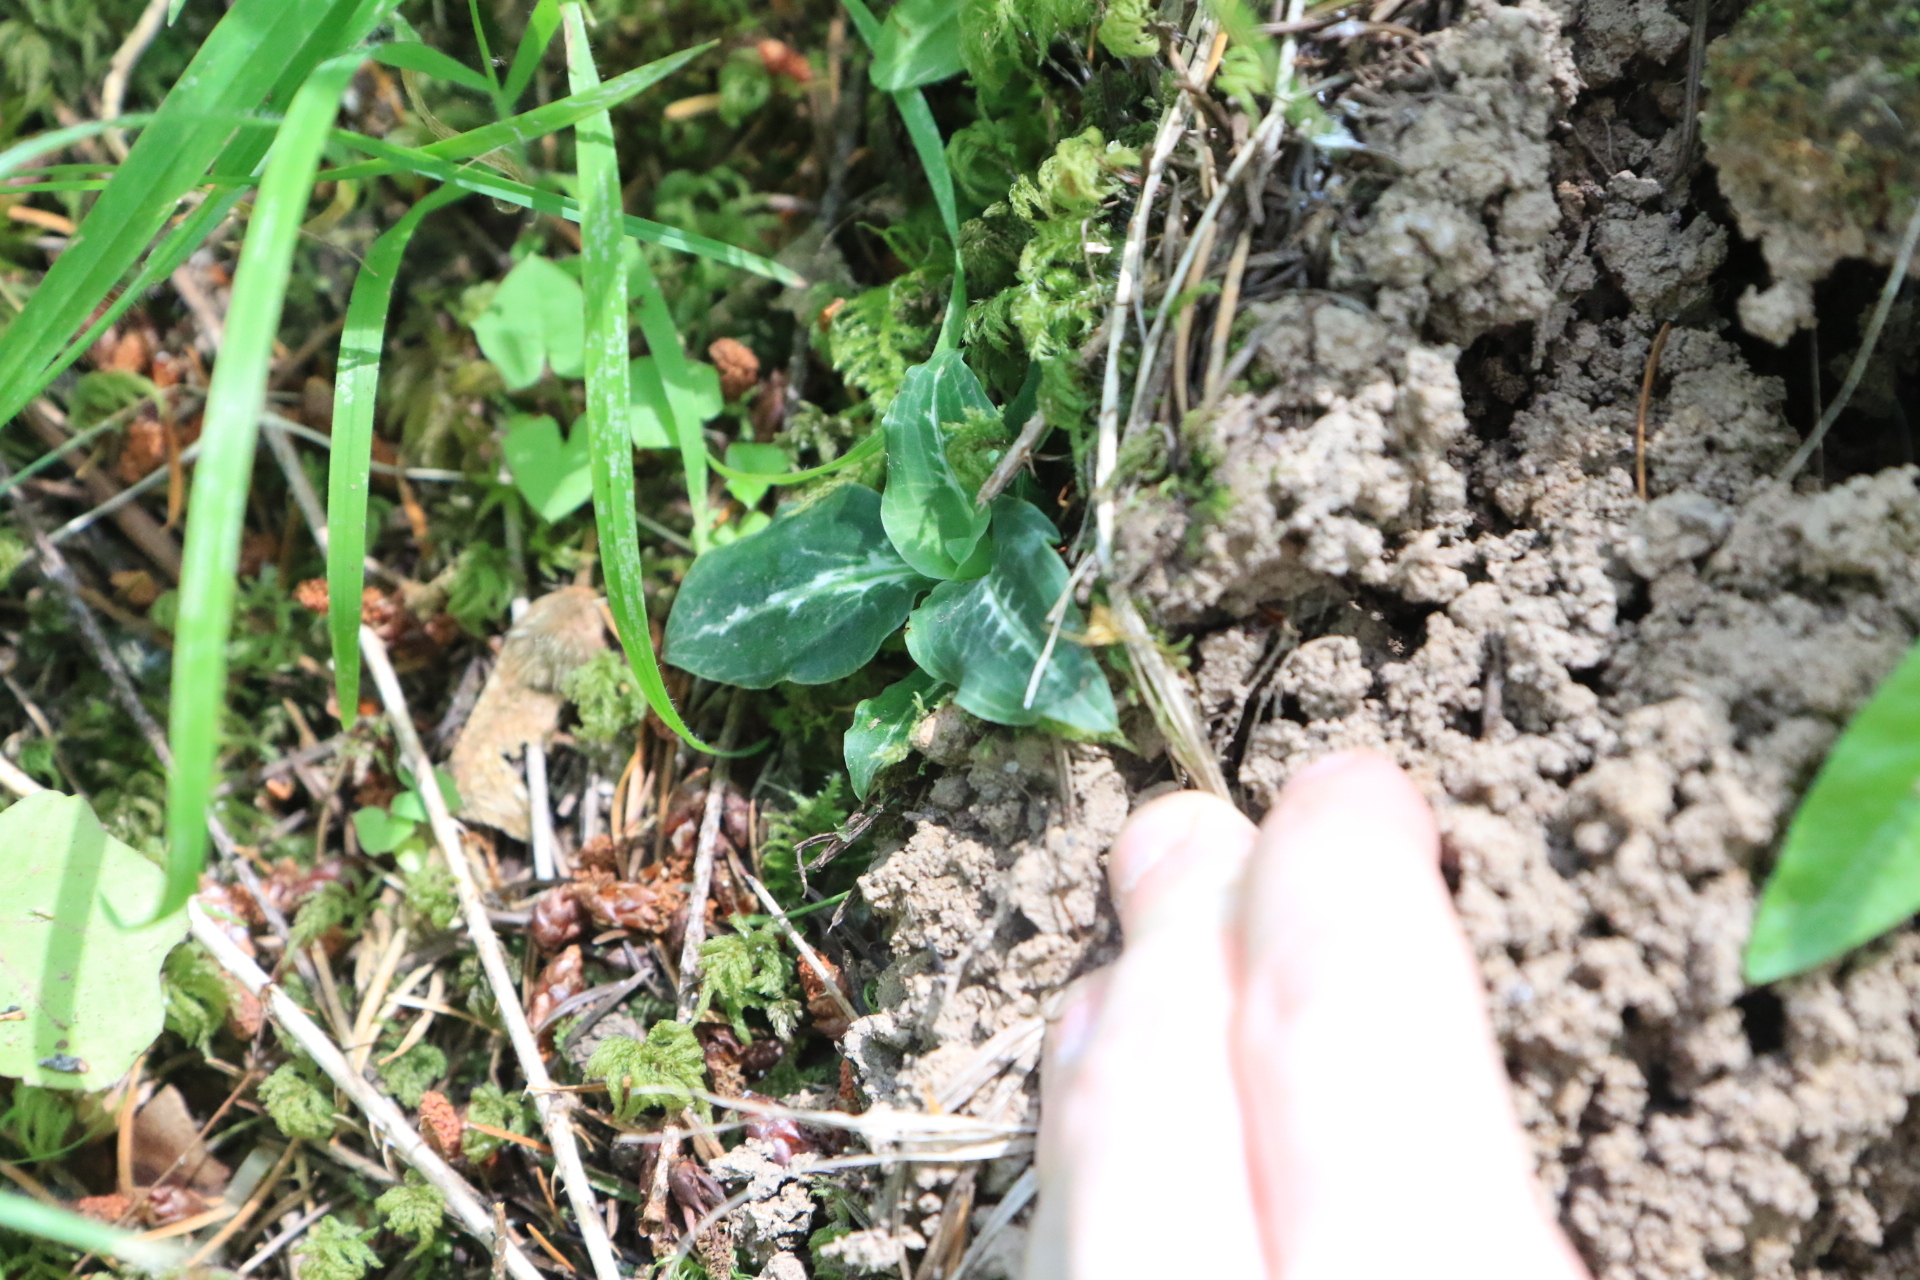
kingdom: Plantae
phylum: Tracheophyta
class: Liliopsida
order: Asparagales
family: Orchidaceae
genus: Goodyera
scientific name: Goodyera oblongifolia
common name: Giant rattlesnake-plantain
